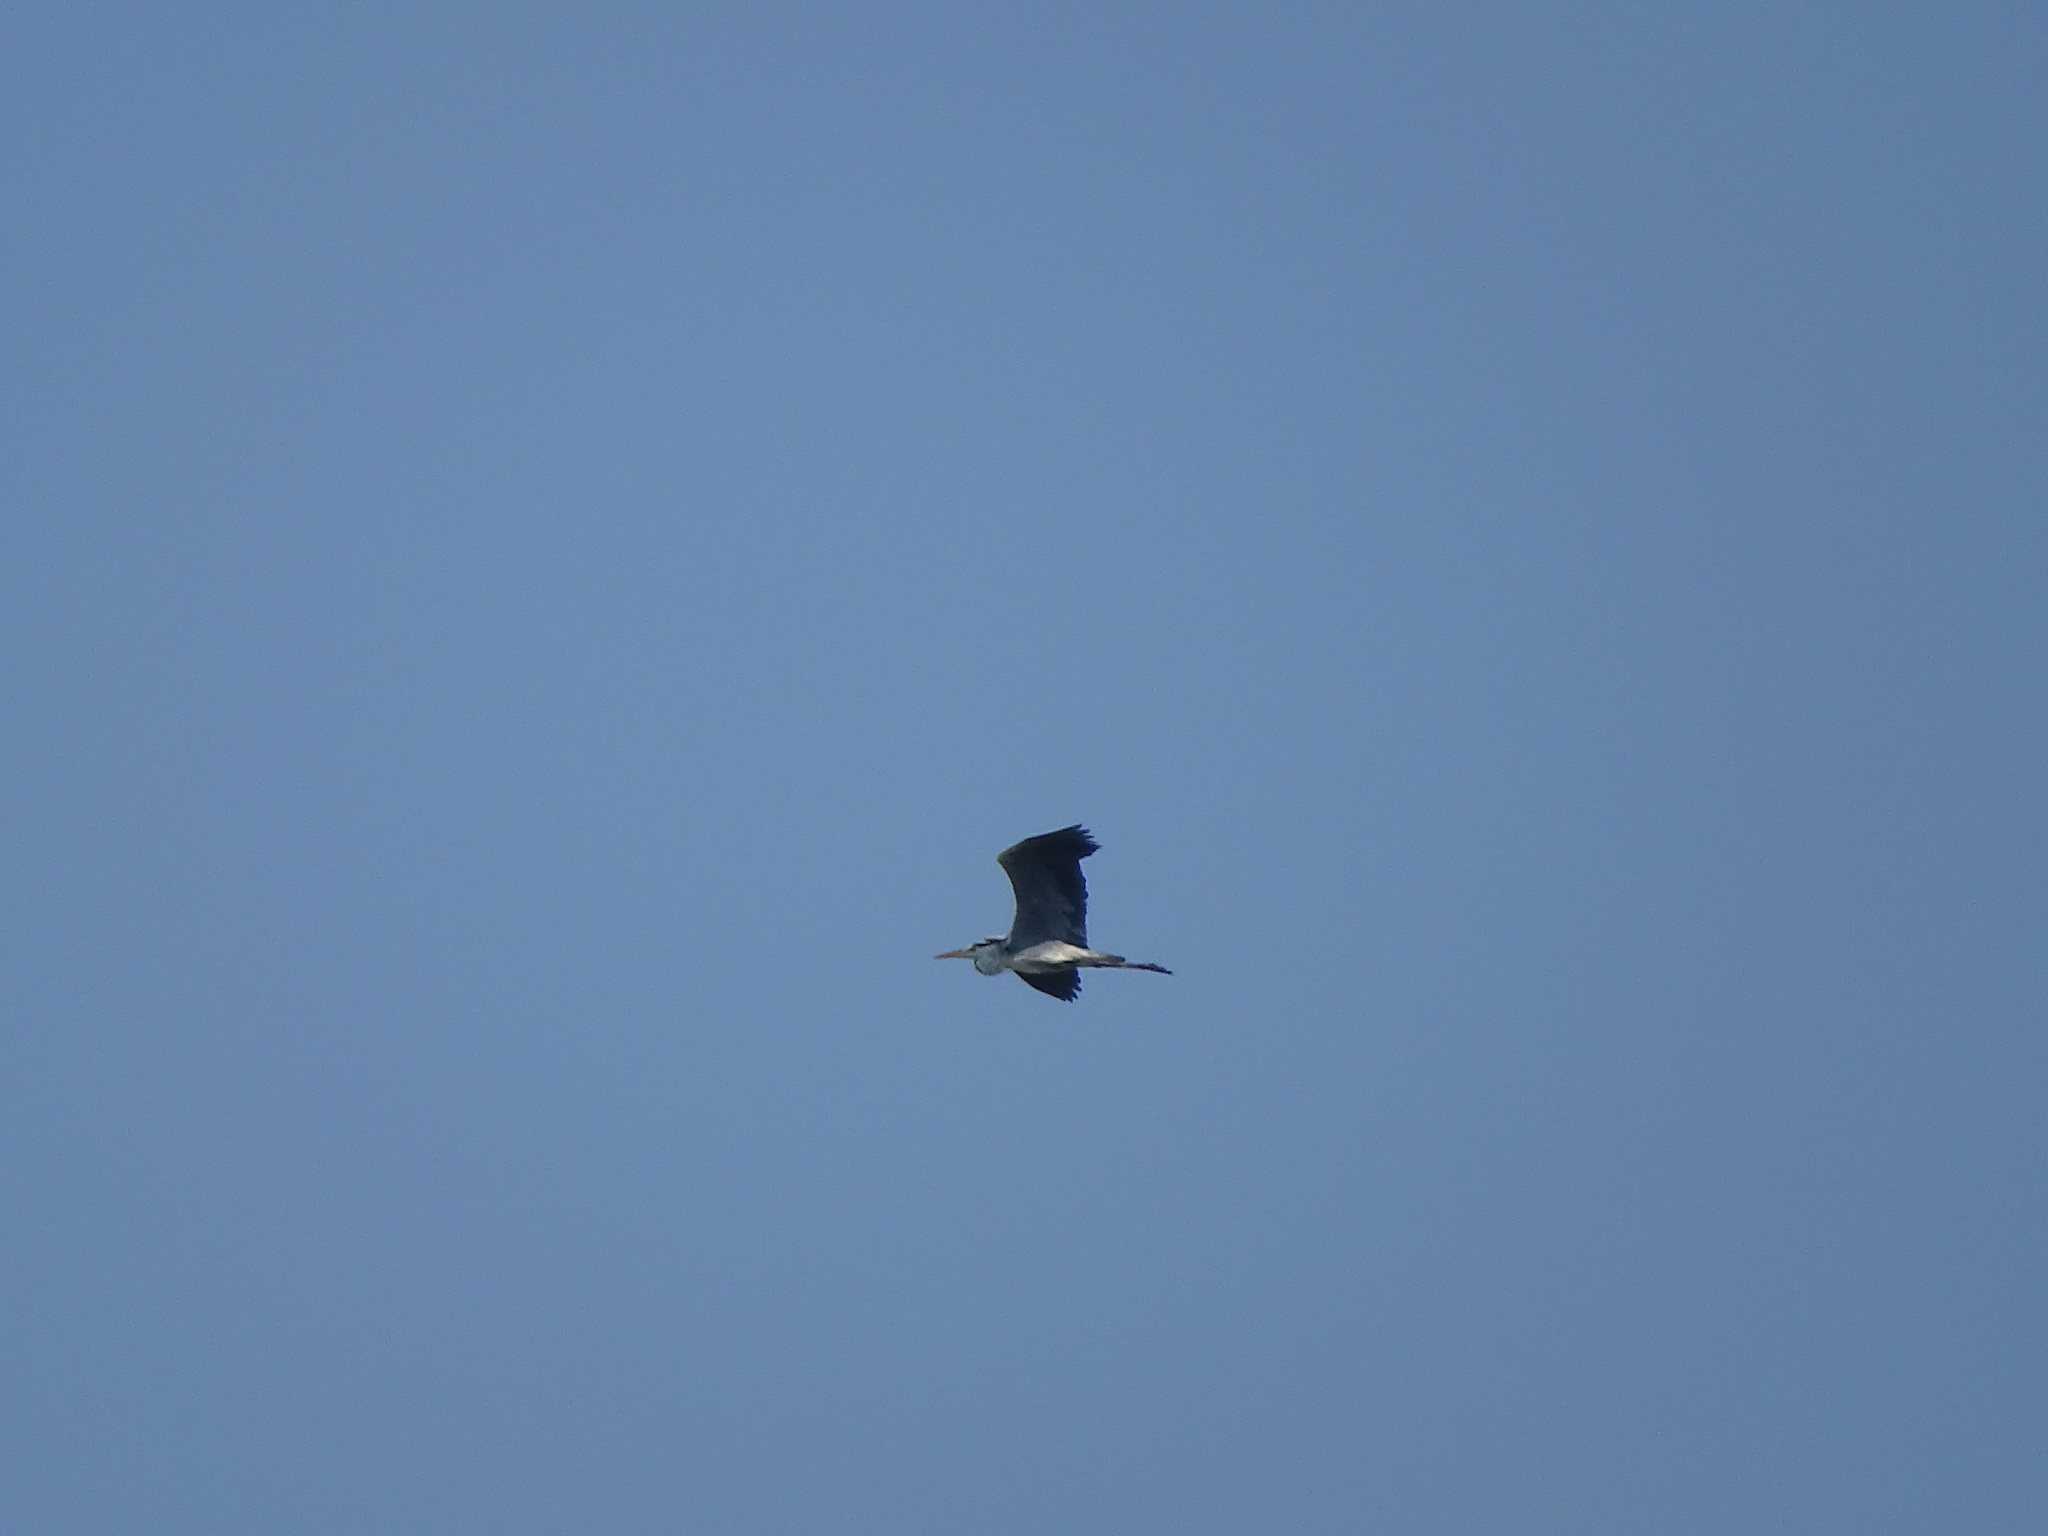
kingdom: Animalia
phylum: Chordata
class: Aves
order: Pelecaniformes
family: Ardeidae
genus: Ardea
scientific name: Ardea cinerea
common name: Grey heron
